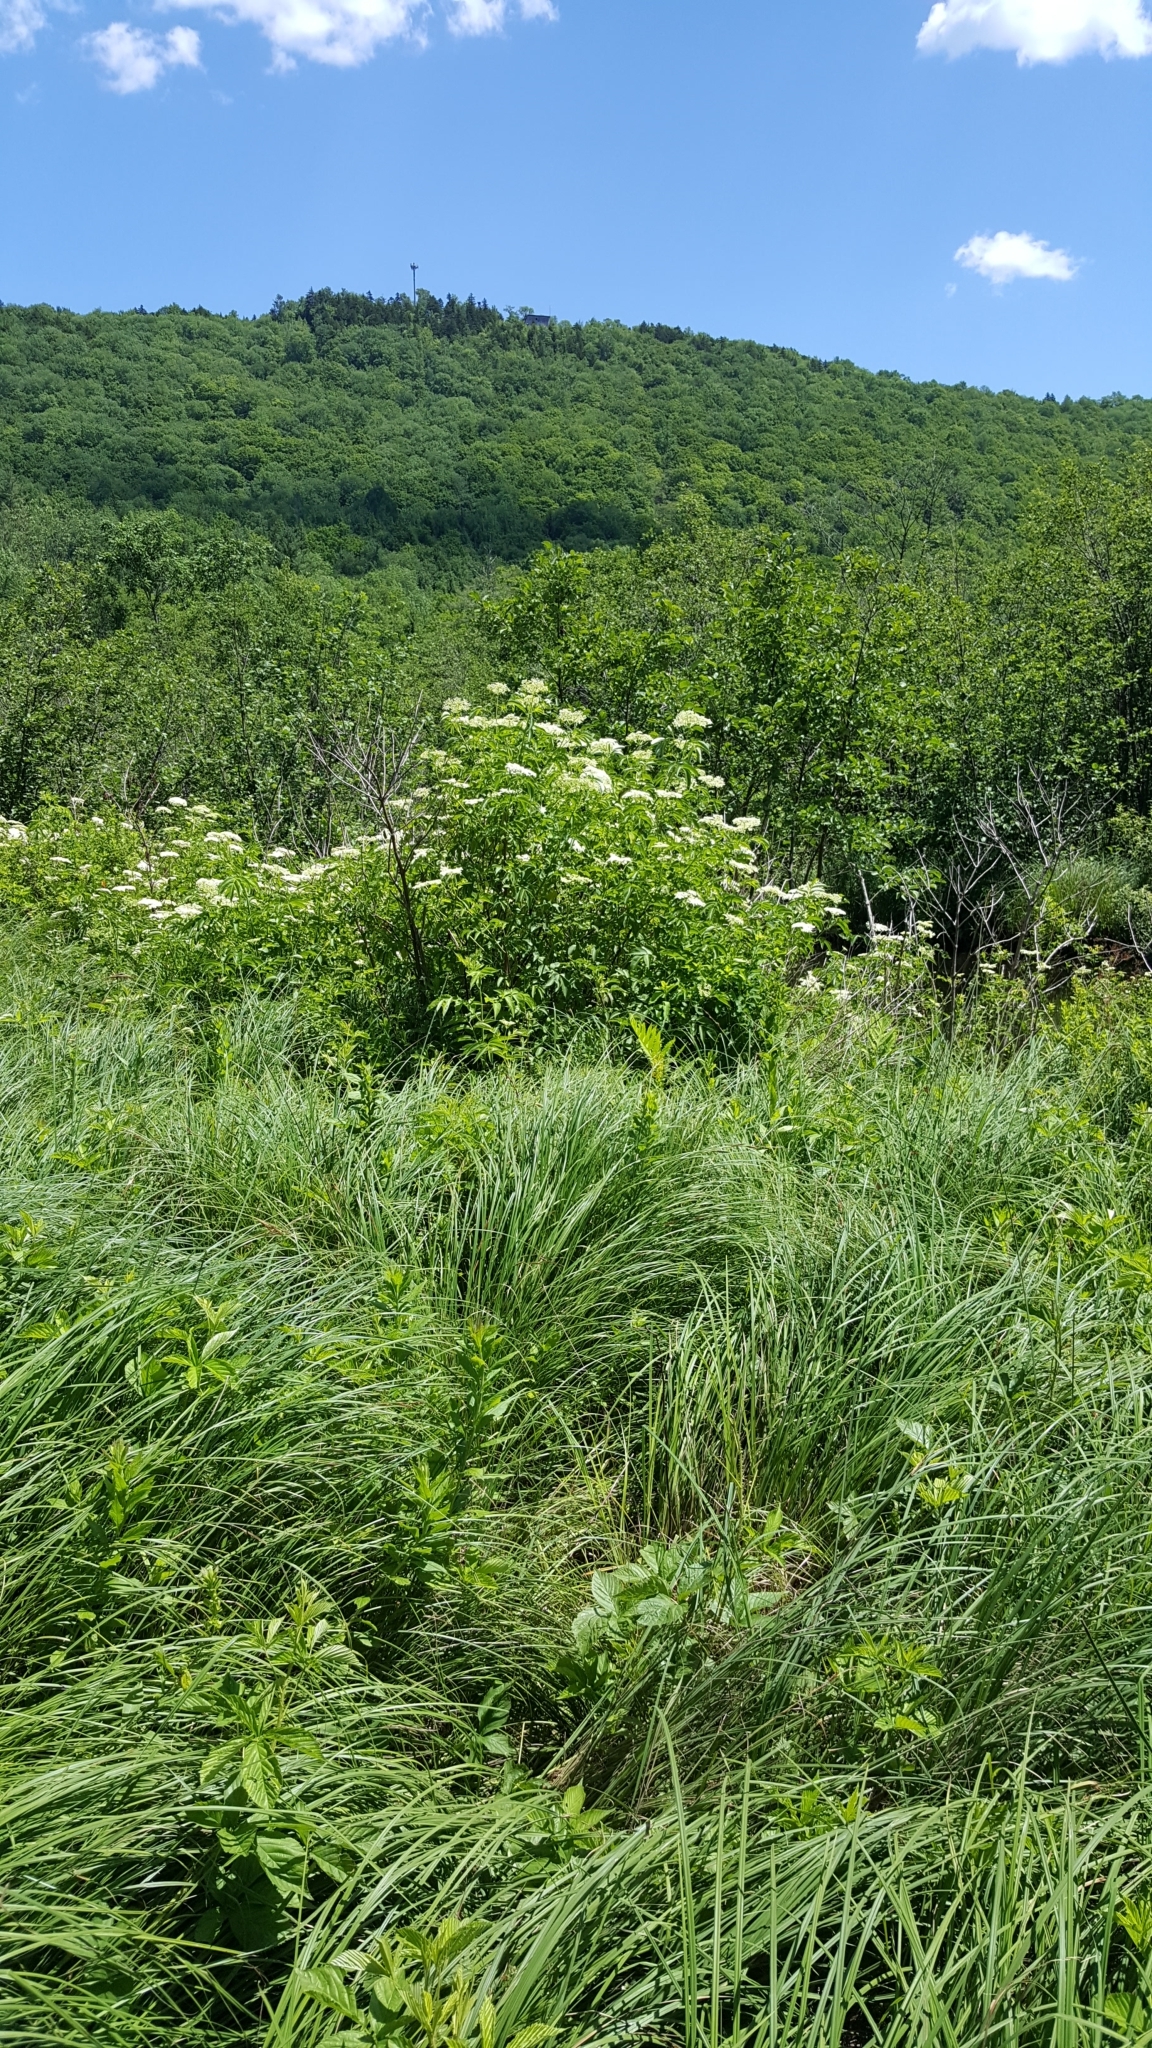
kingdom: Plantae
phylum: Tracheophyta
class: Magnoliopsida
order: Dipsacales
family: Viburnaceae
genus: Sambucus
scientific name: Sambucus canadensis
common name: American elder
